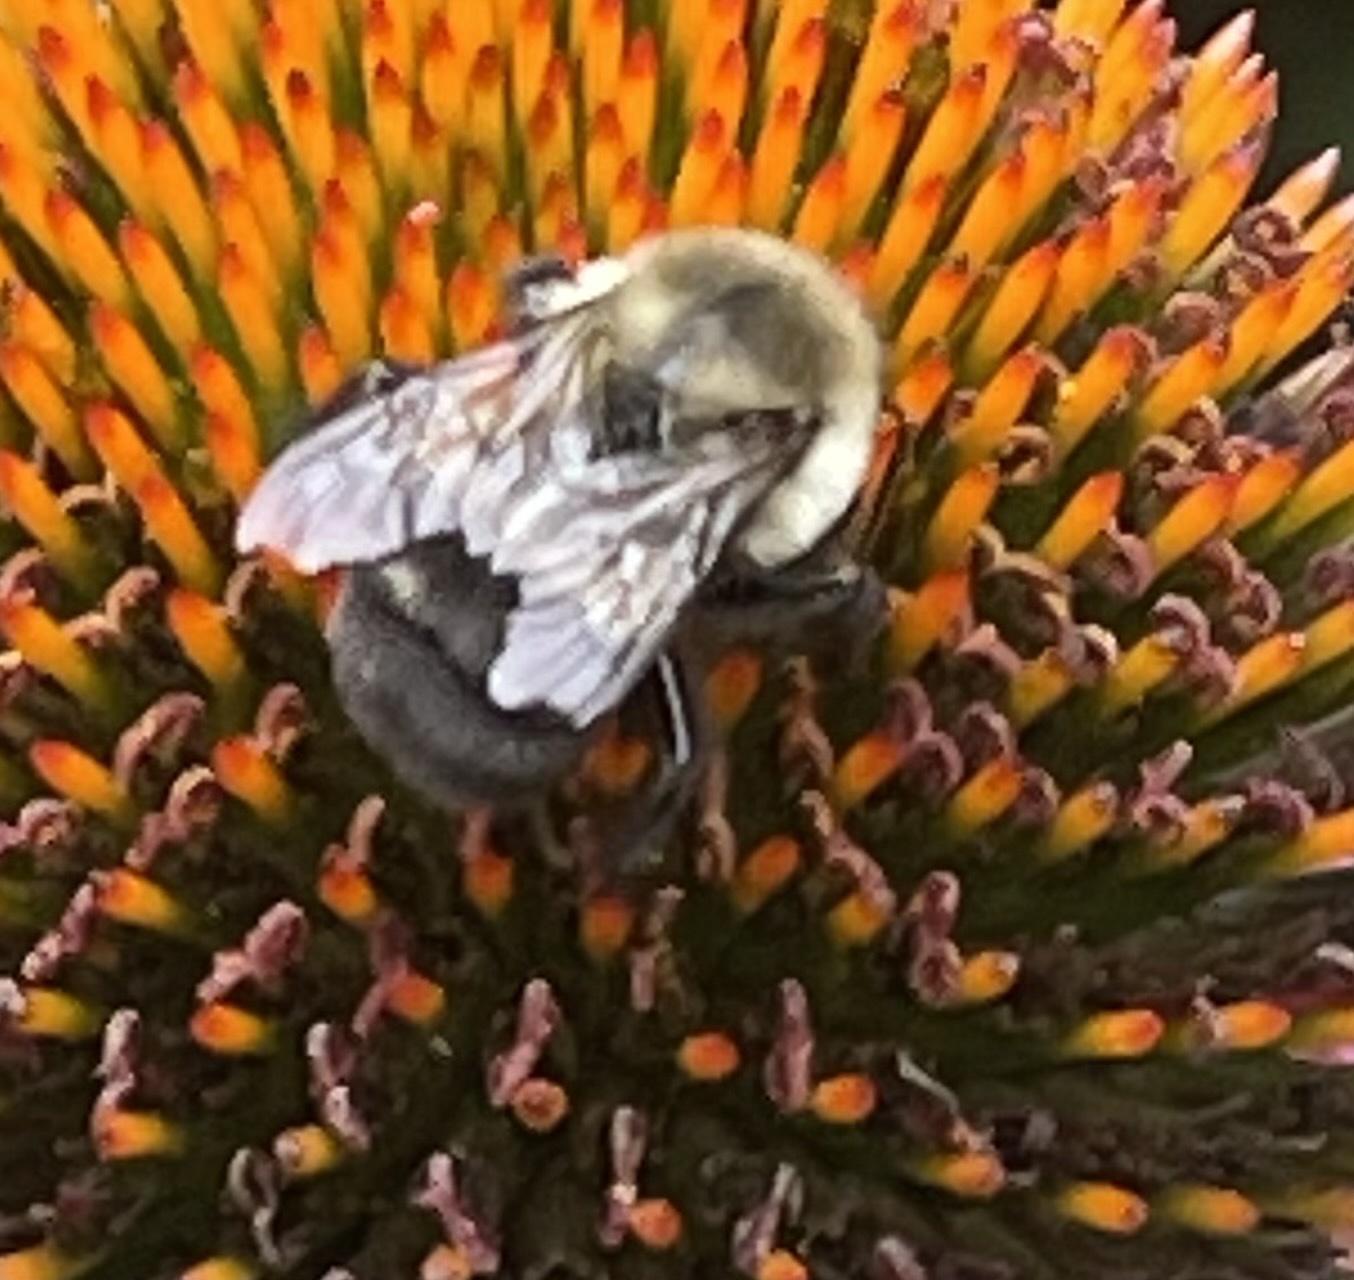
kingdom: Animalia
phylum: Arthropoda
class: Insecta
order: Hymenoptera
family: Apidae
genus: Bombus
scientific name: Bombus impatiens
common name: Common eastern bumble bee
